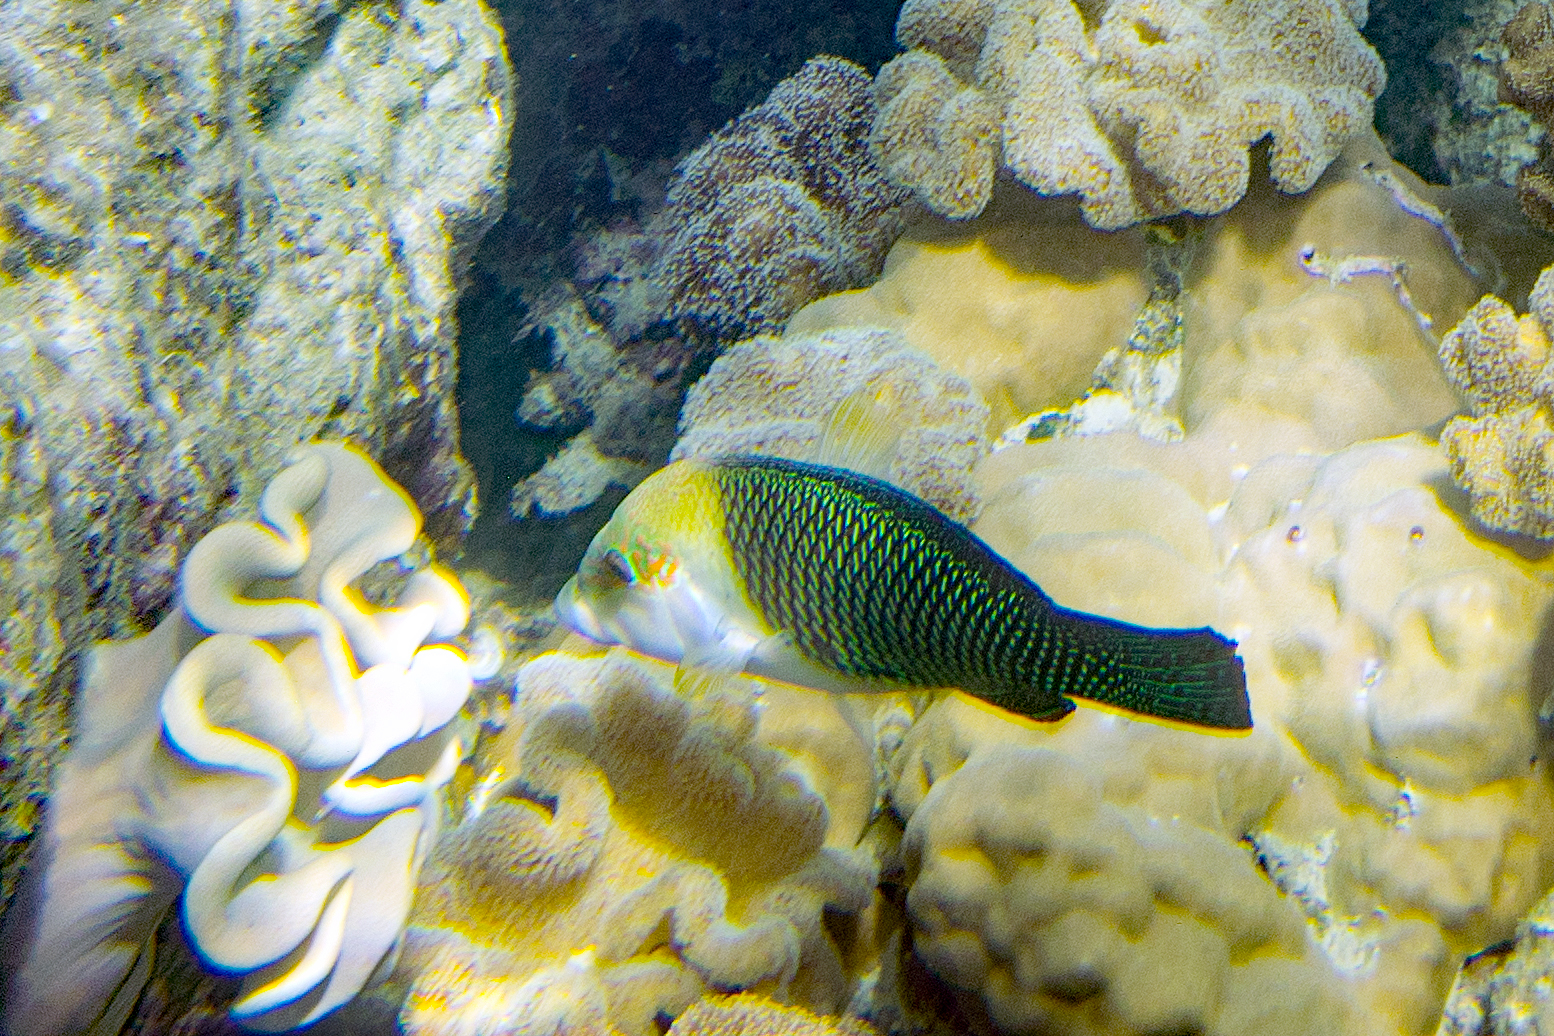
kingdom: Animalia
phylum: Chordata
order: Perciformes
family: Labridae
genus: Hemigymnus
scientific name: Hemigymnus melapterus
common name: Blackeye thicklip
